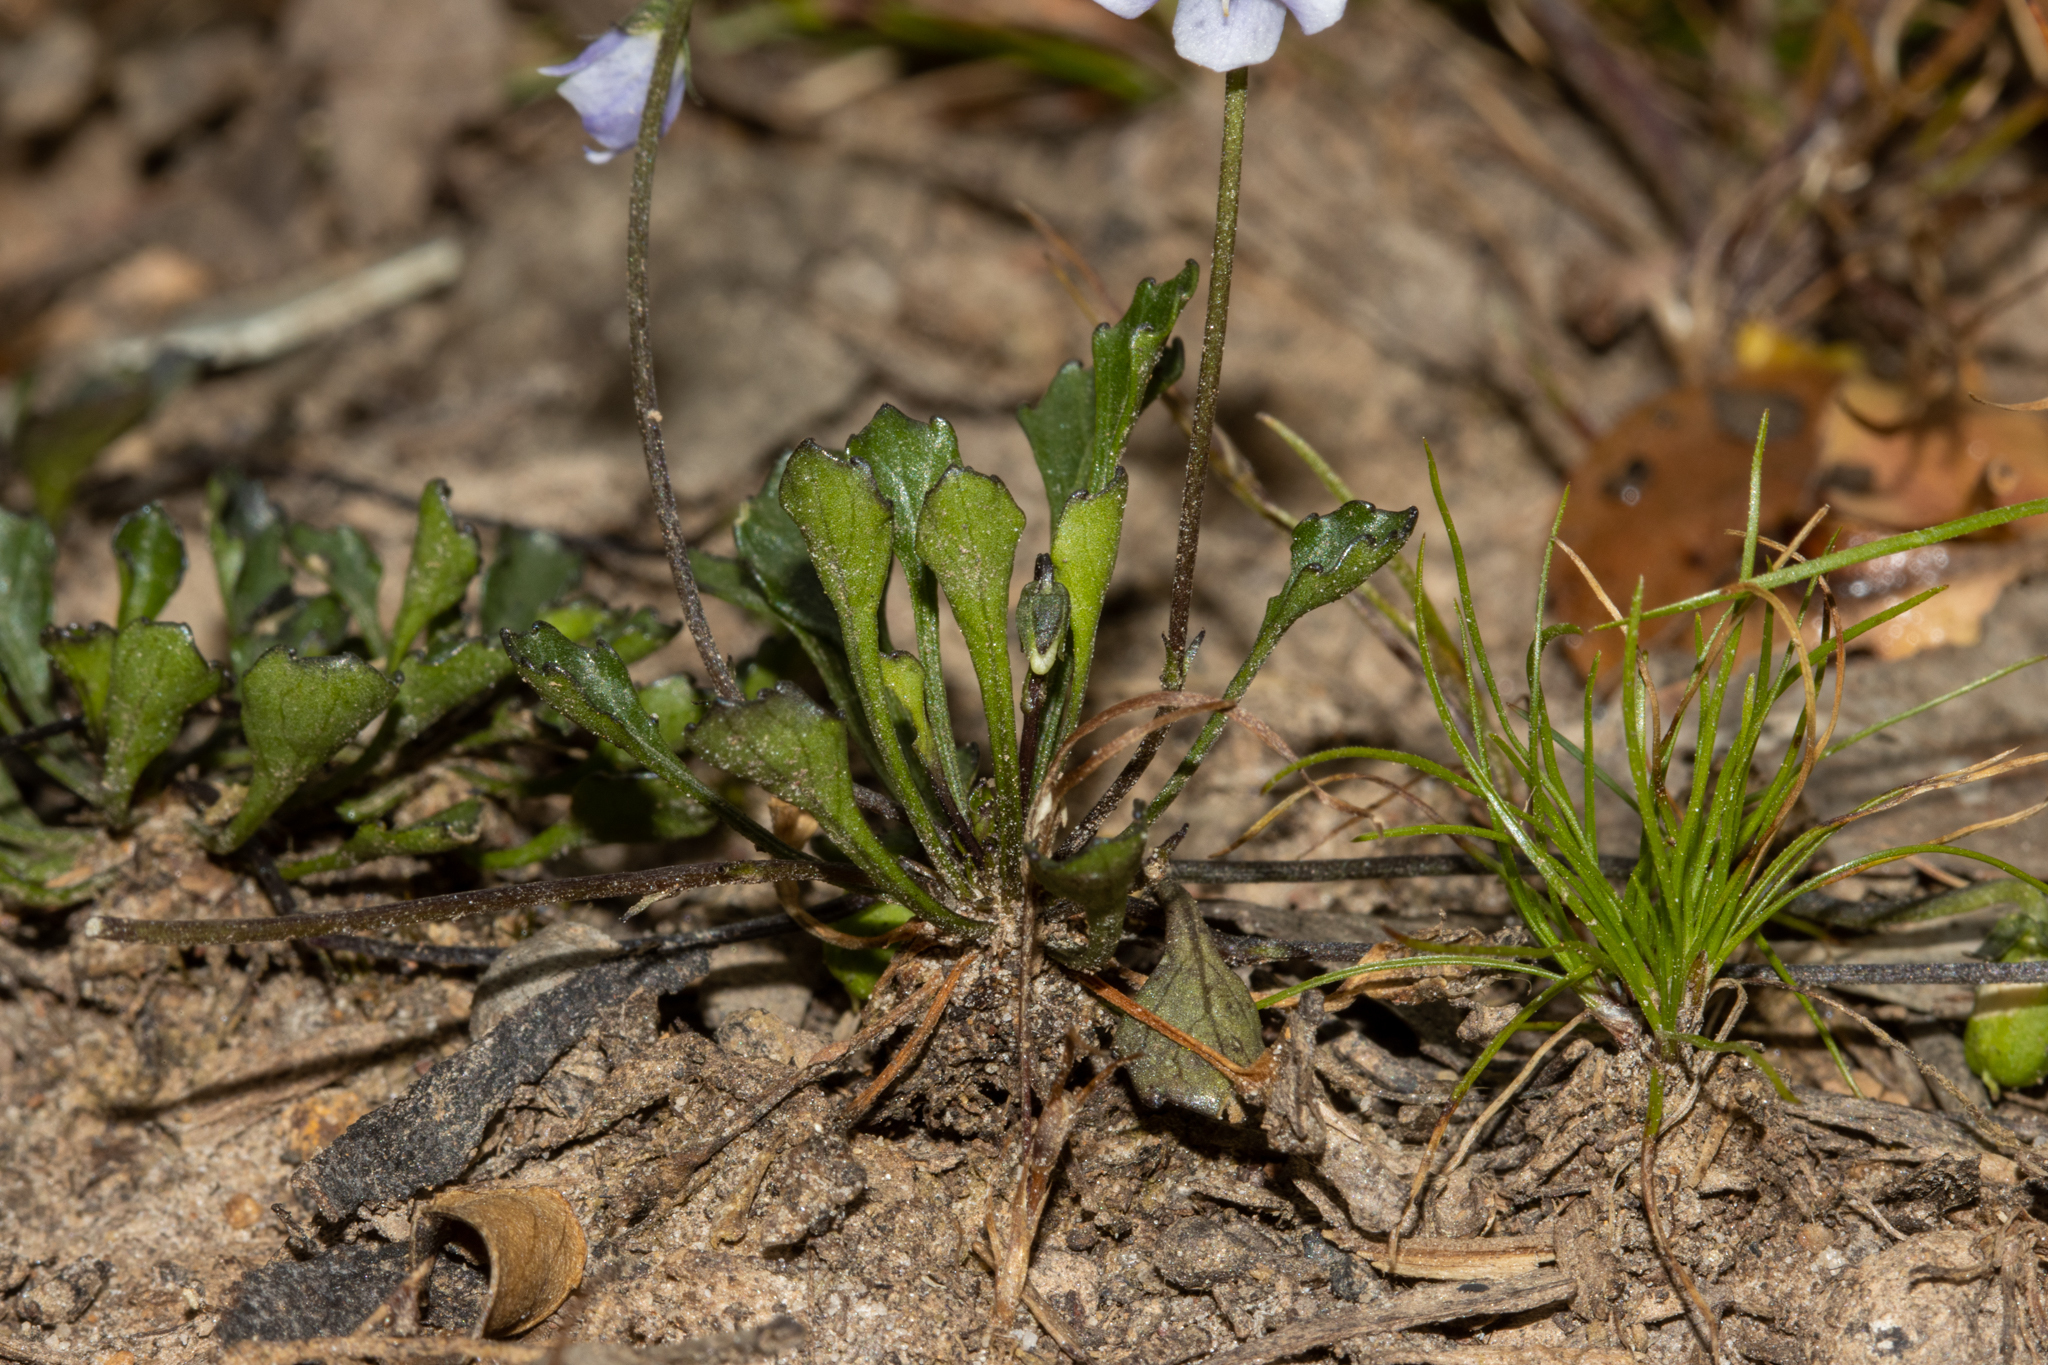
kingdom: Plantae
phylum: Tracheophyta
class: Magnoliopsida
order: Malpighiales
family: Violaceae
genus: Viola
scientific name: Viola sieberiana
